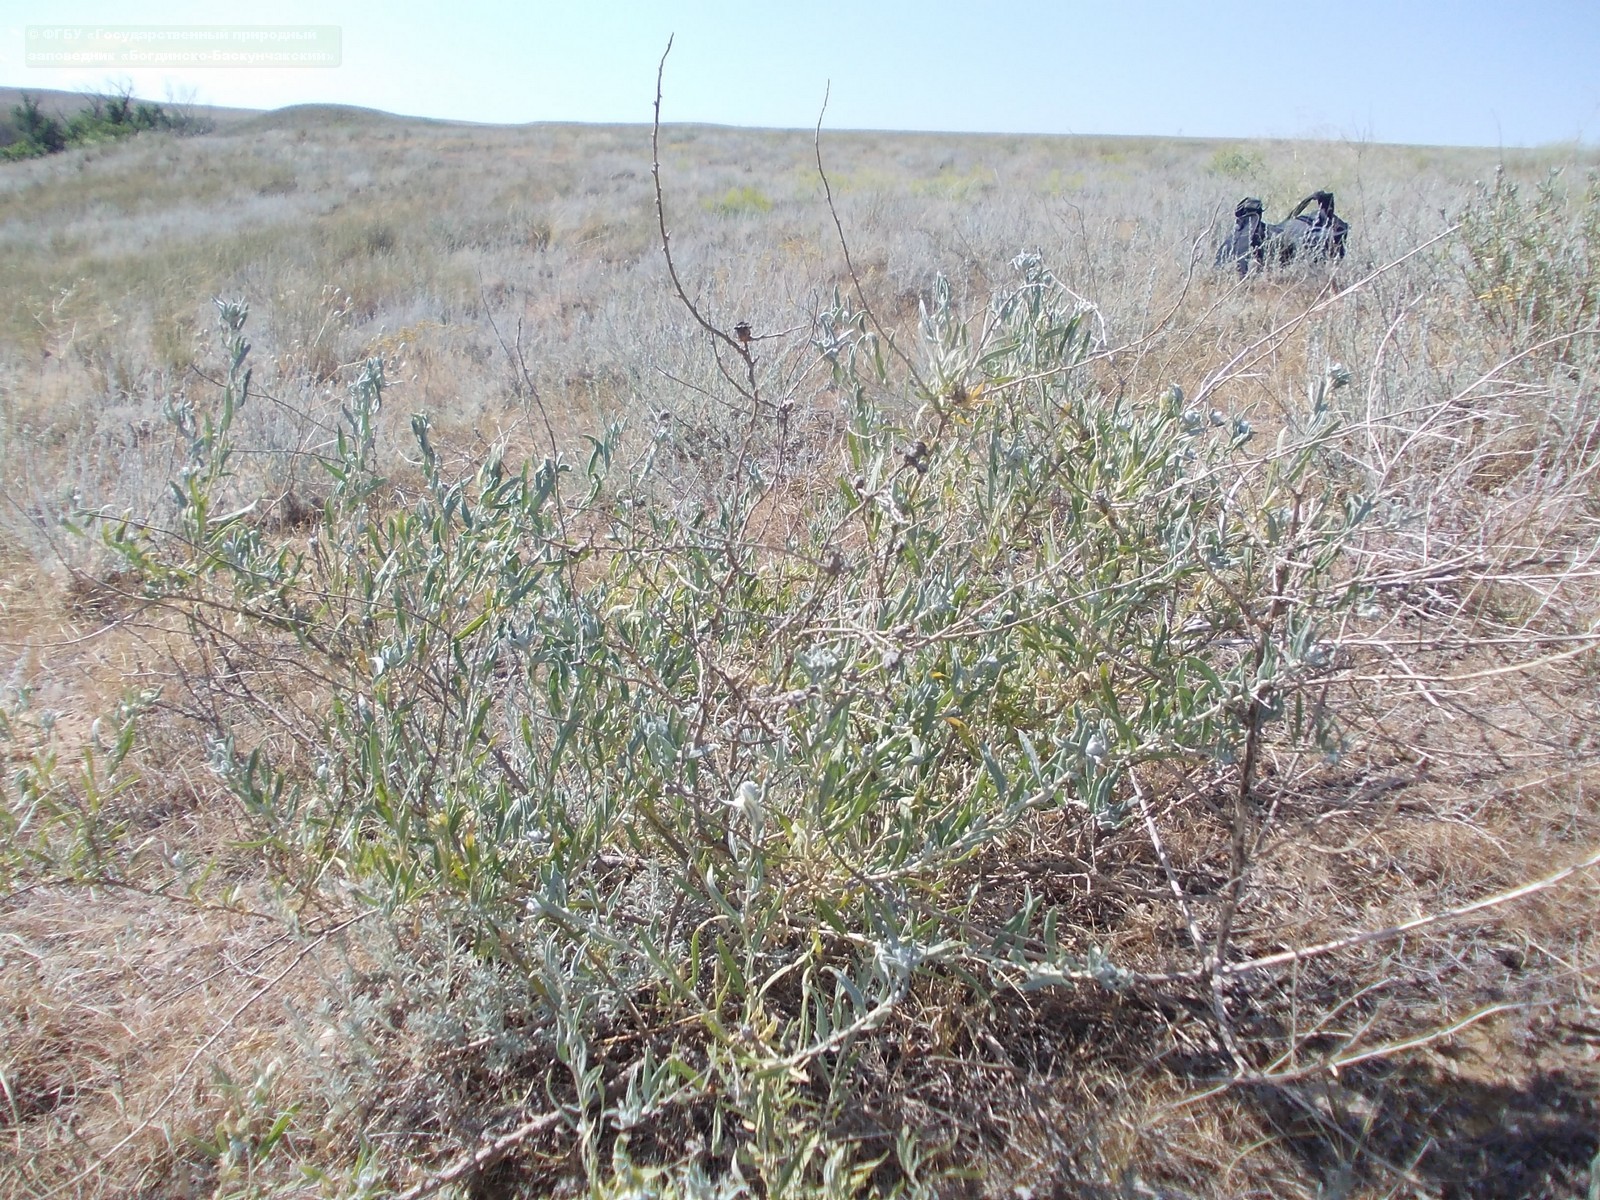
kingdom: Plantae
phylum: Tracheophyta
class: Magnoliopsida
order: Caryophyllales
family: Amaranthaceae
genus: Krascheninnikovia
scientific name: Krascheninnikovia ceratoides
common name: Pamirian winterfat
